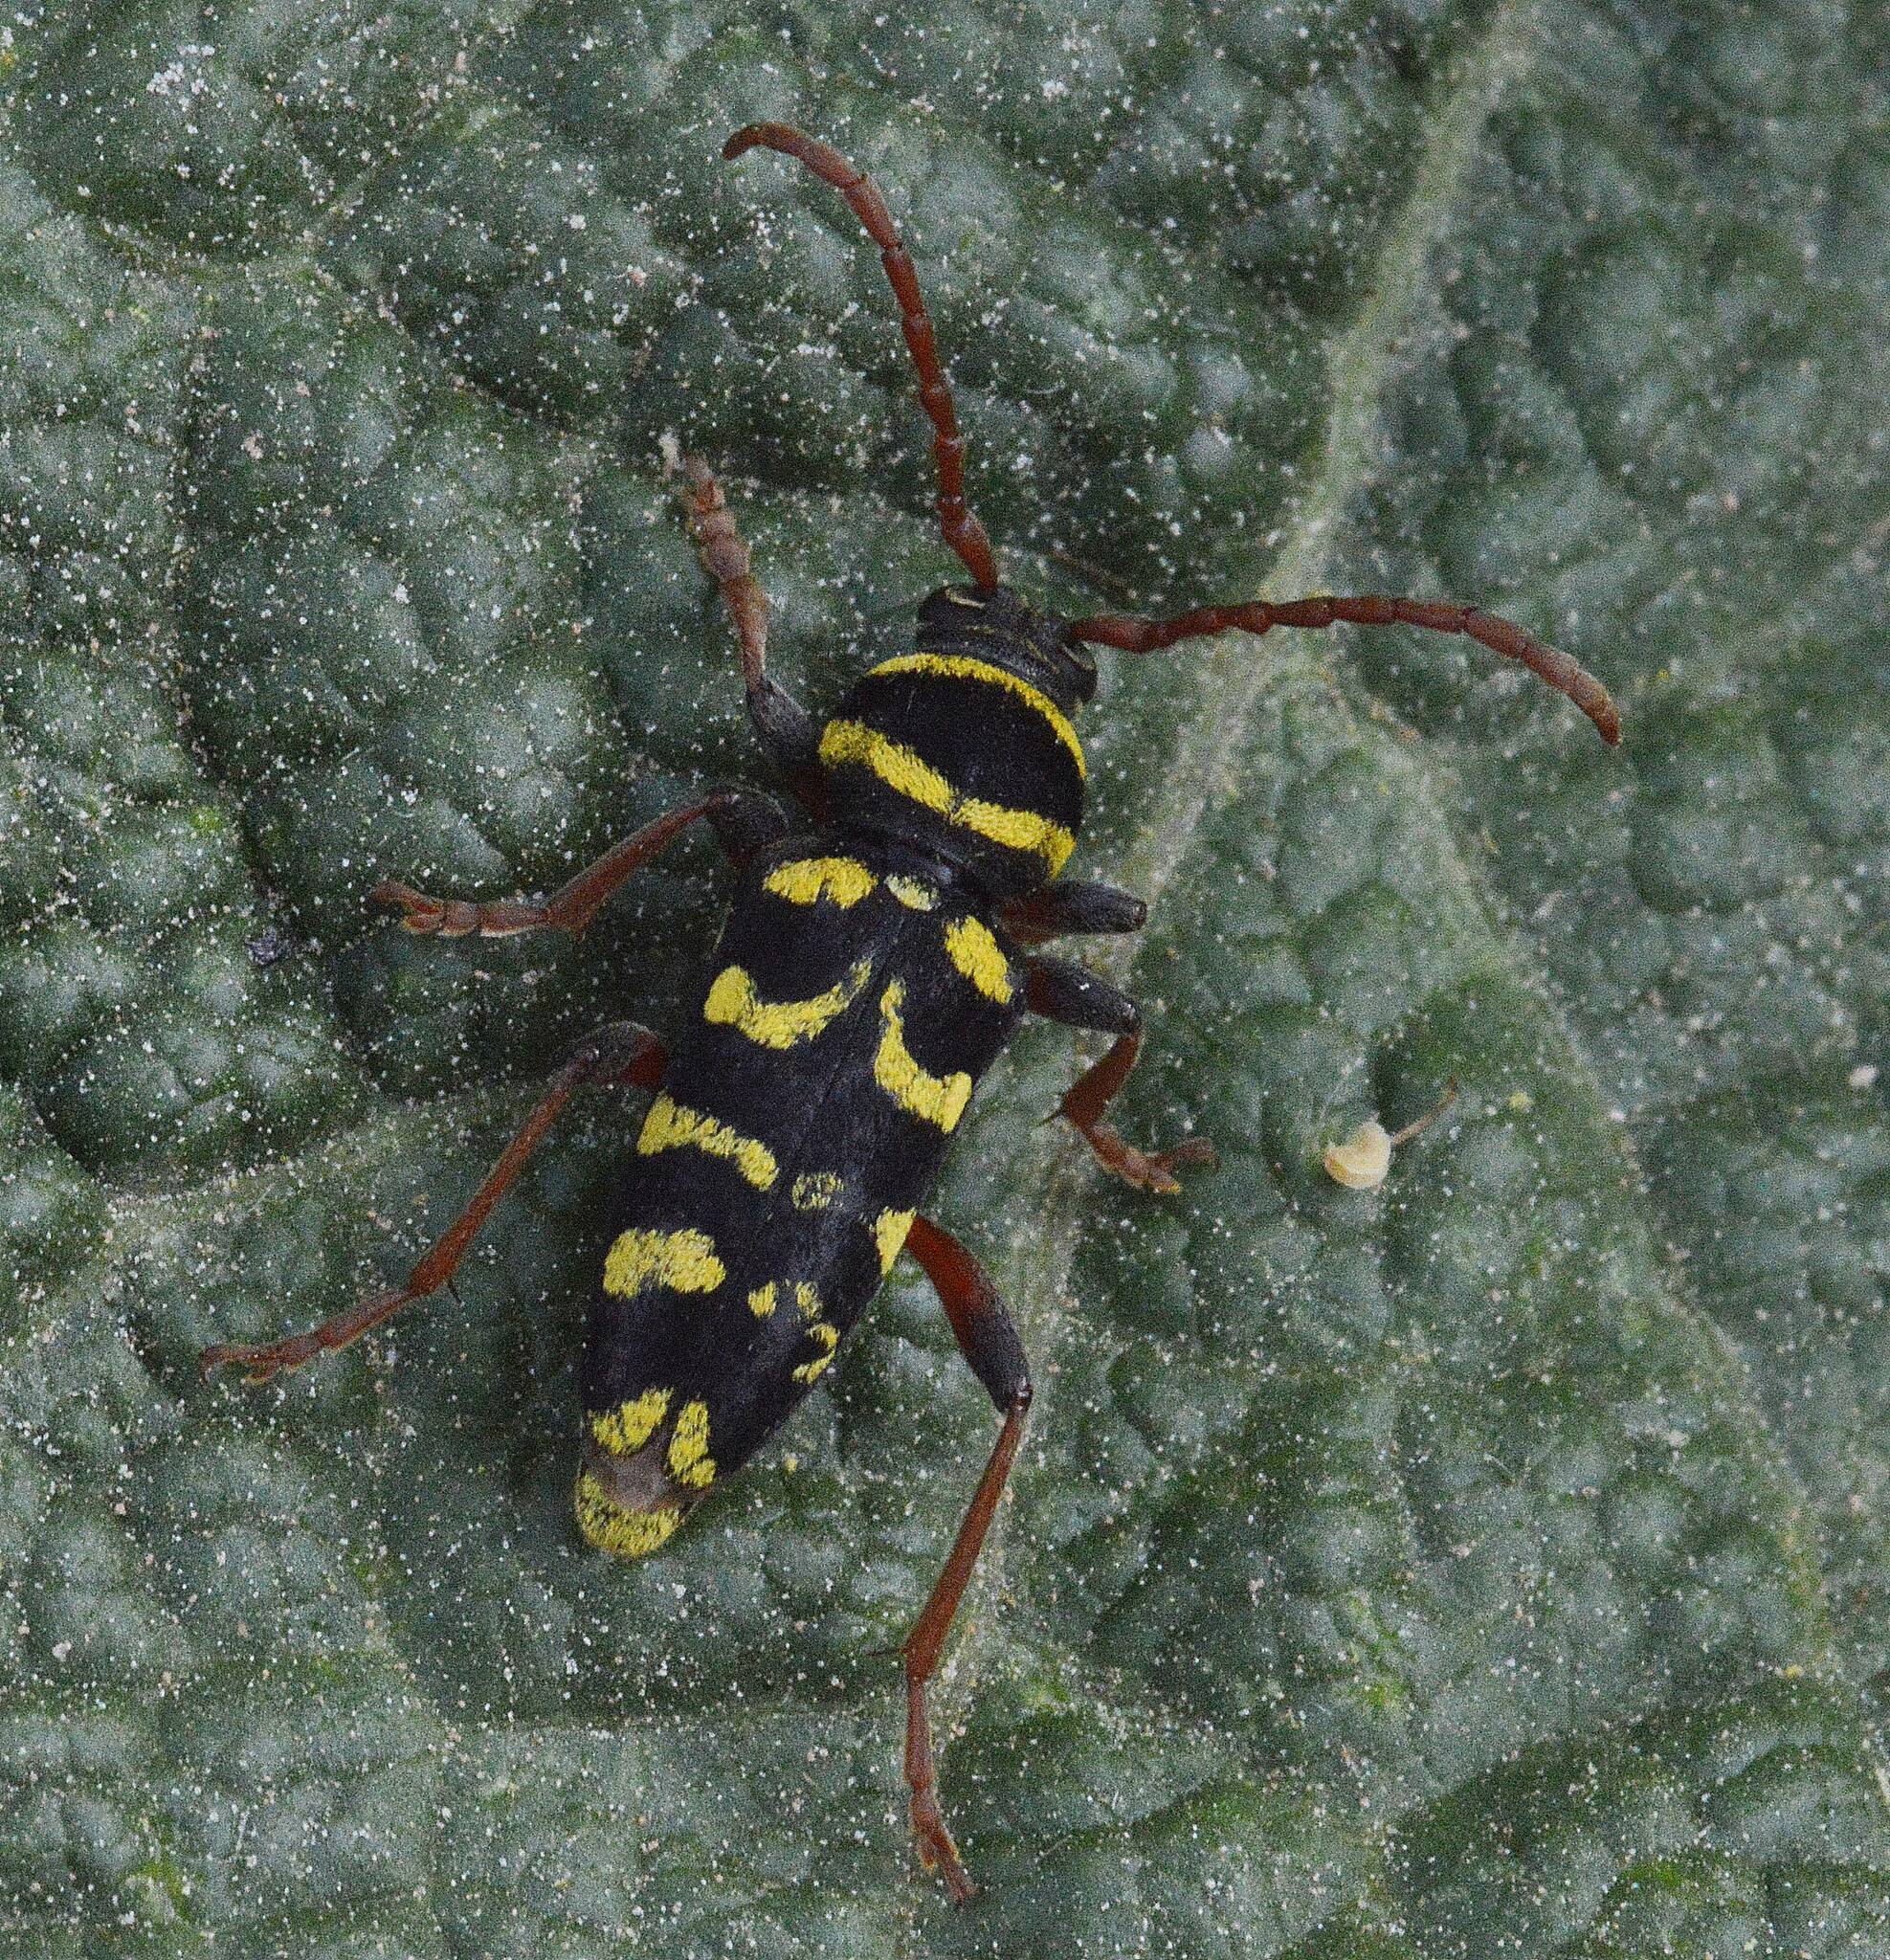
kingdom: Animalia
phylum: Arthropoda
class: Insecta
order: Coleoptera
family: Cerambycidae
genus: Neoplagionotus
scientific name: Neoplagionotus scalaris
